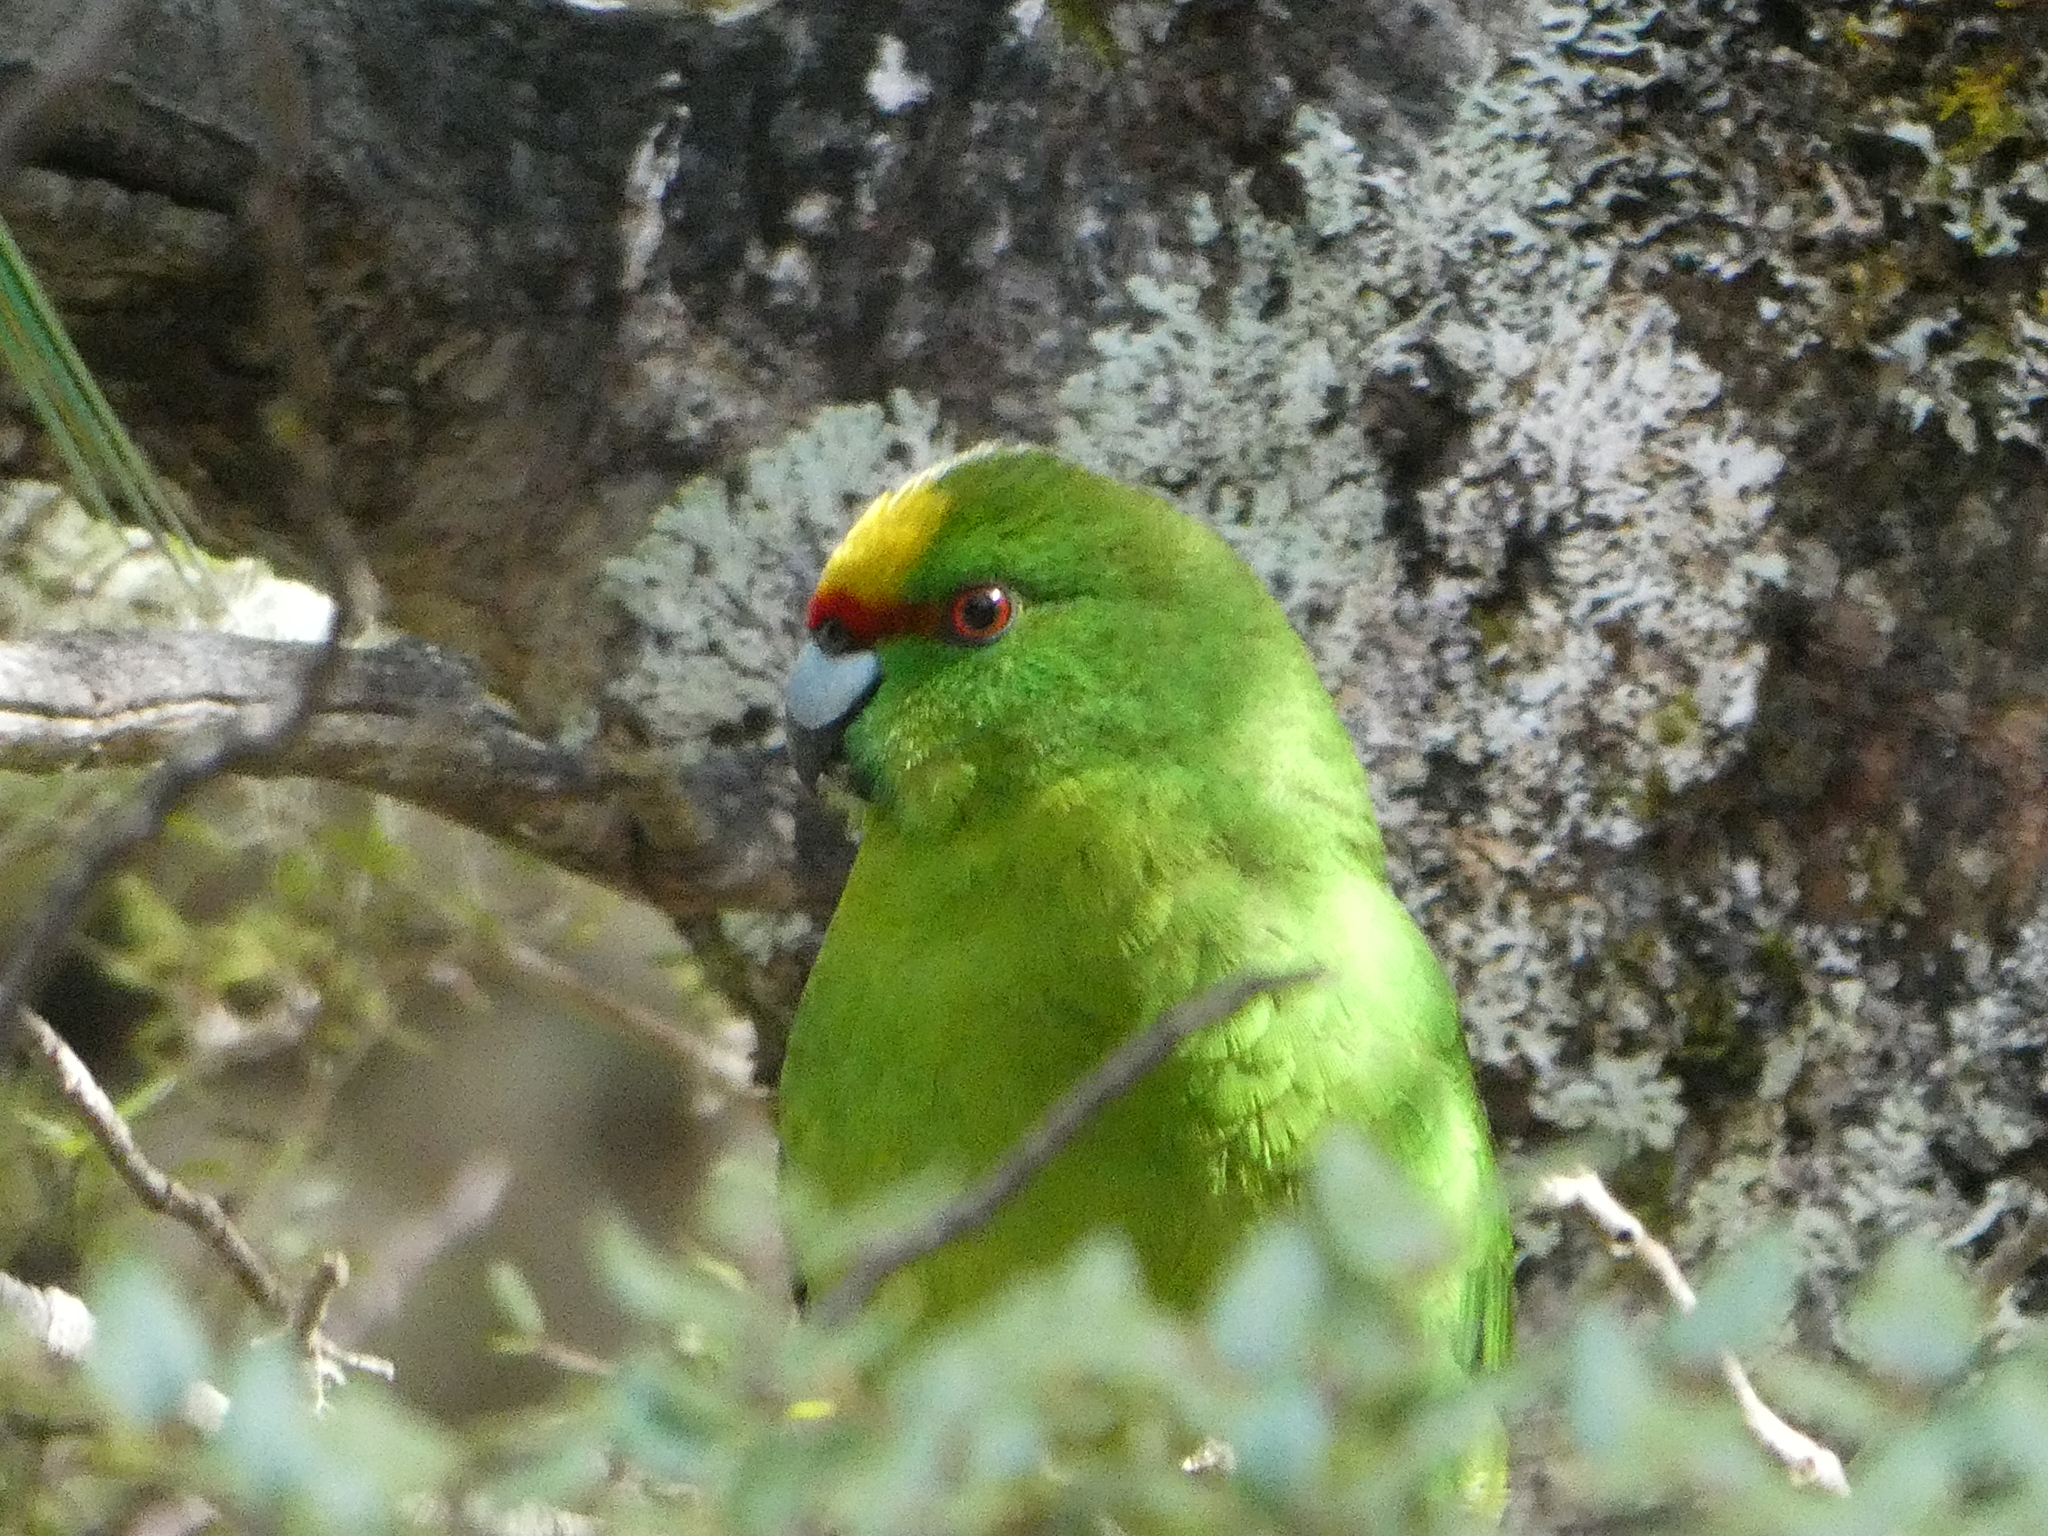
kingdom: Animalia
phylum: Chordata
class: Aves
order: Psittaciformes
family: Psittacidae
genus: Cyanoramphus
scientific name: Cyanoramphus auriceps
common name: Yellow-crowned parakeet
